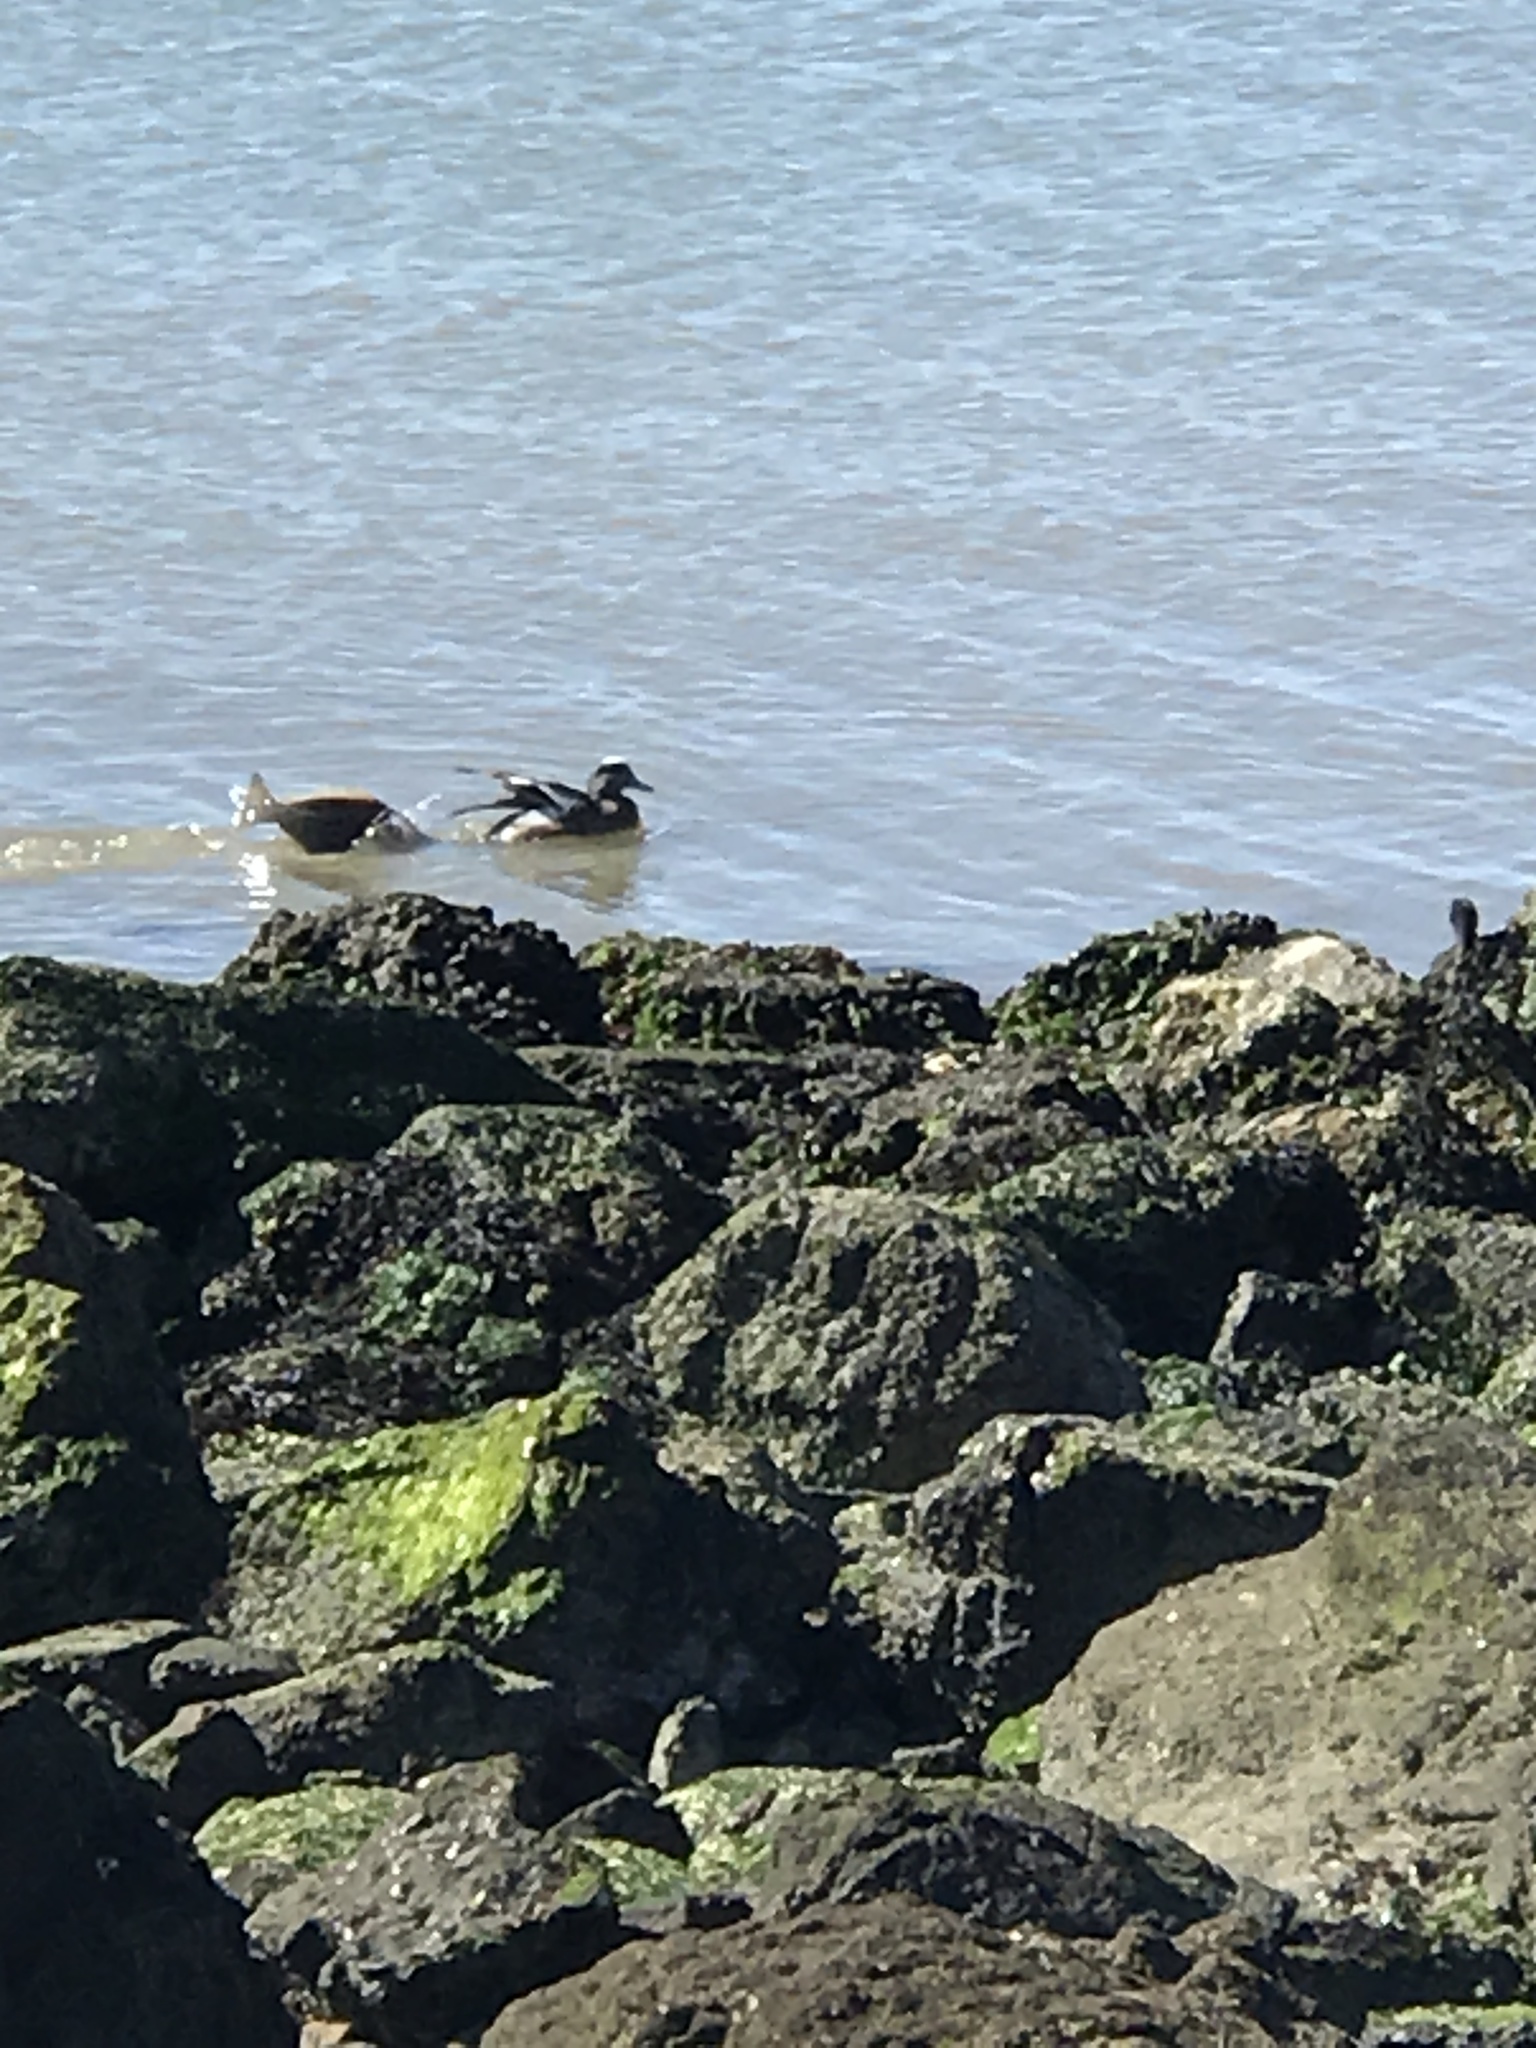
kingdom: Animalia
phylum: Chordata
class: Aves
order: Anseriformes
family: Anatidae
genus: Mareca
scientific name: Mareca americana
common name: American wigeon
